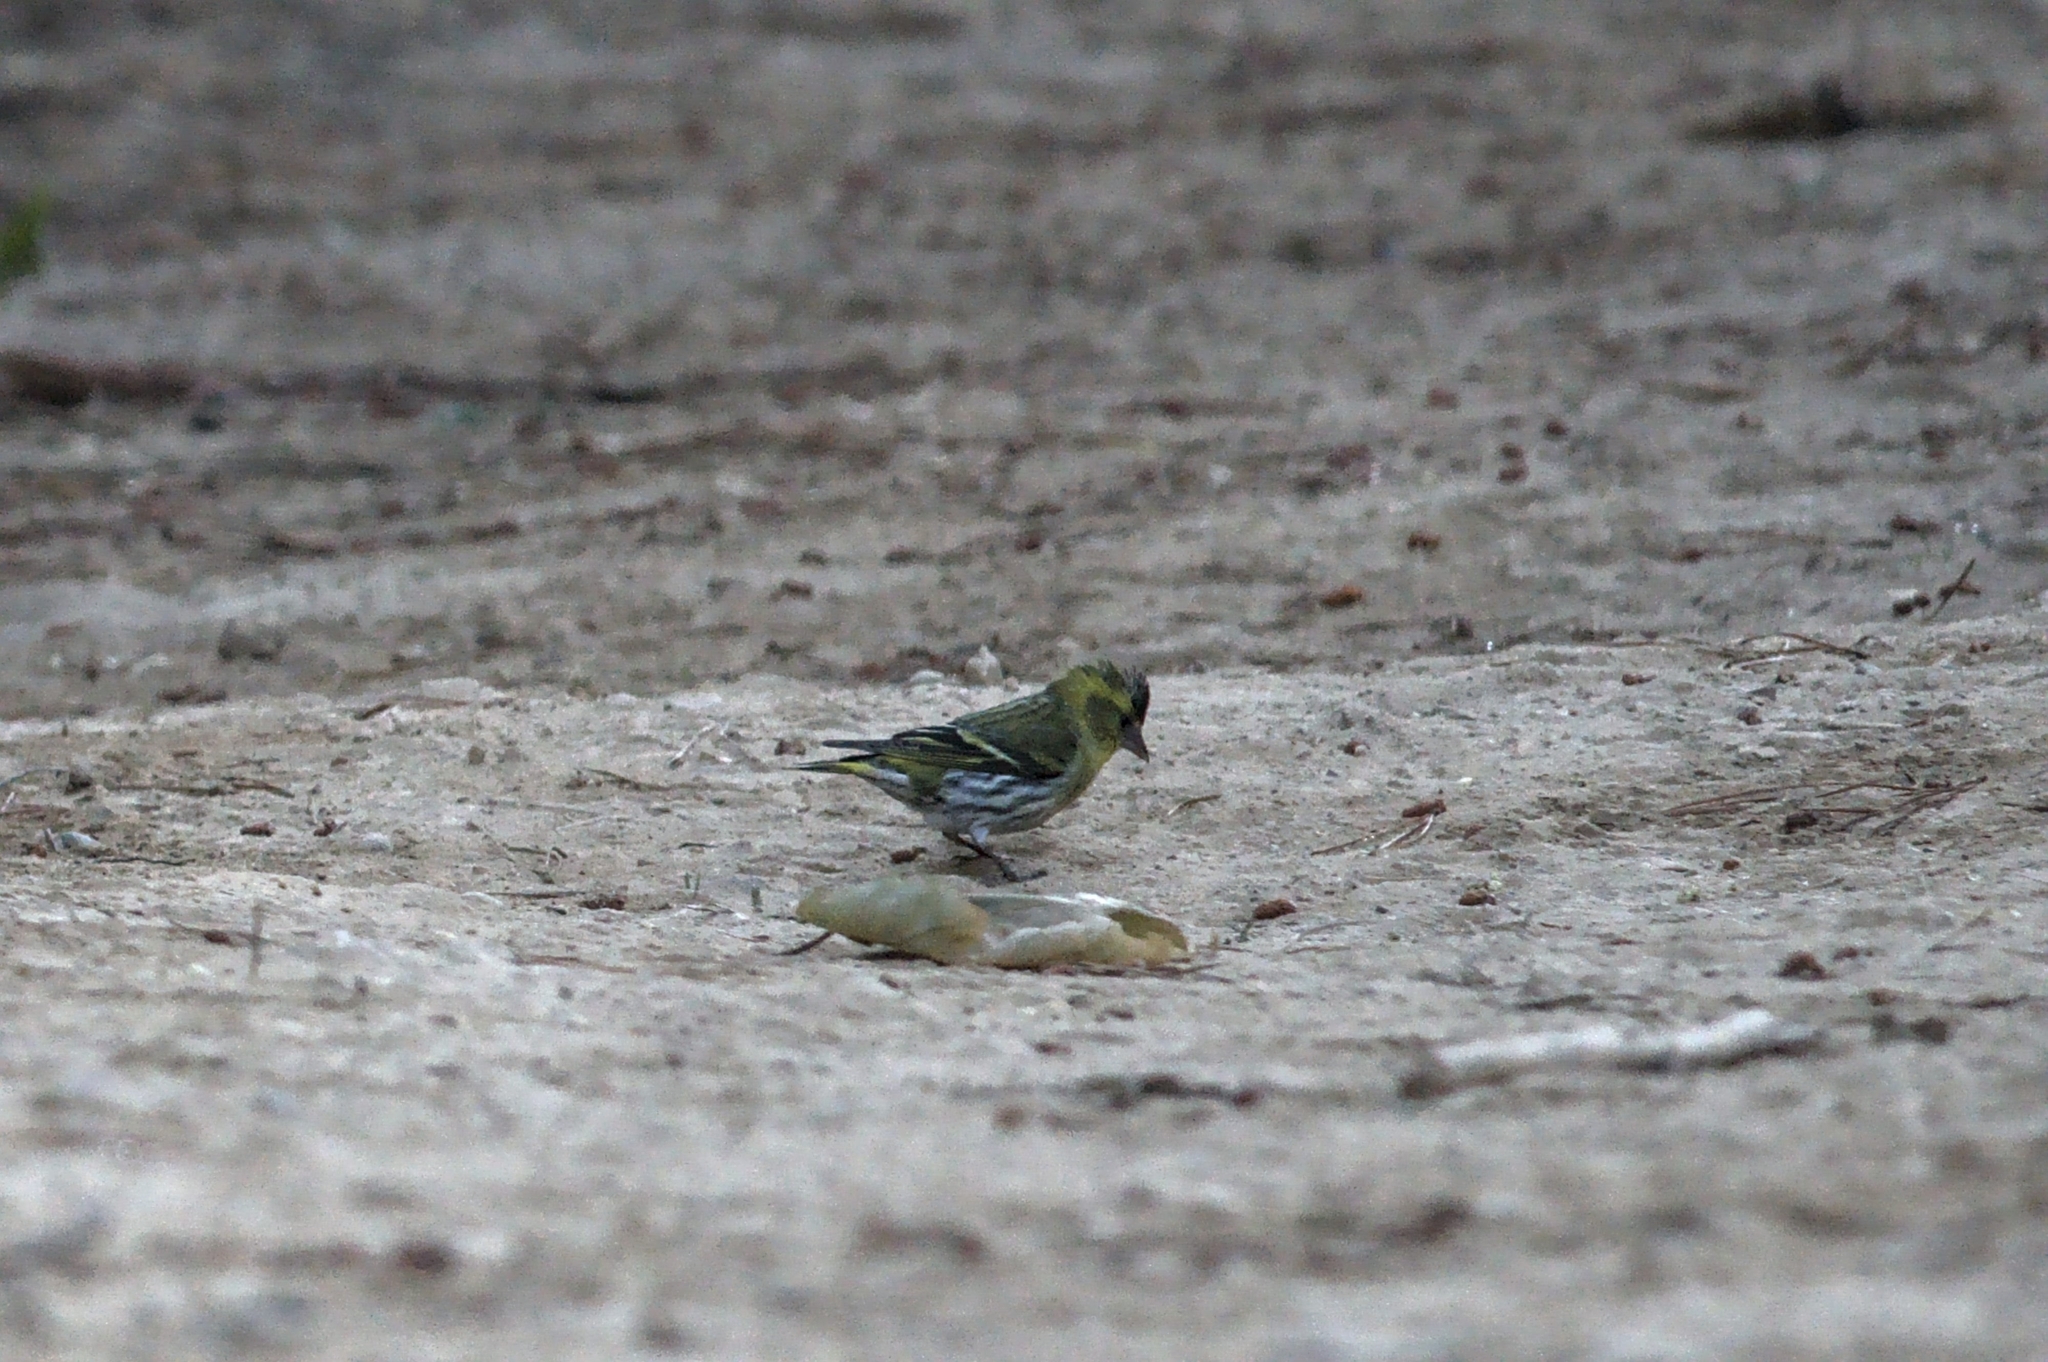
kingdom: Animalia
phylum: Chordata
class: Aves
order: Passeriformes
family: Fringillidae
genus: Spinus
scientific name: Spinus spinus
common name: Eurasian siskin
